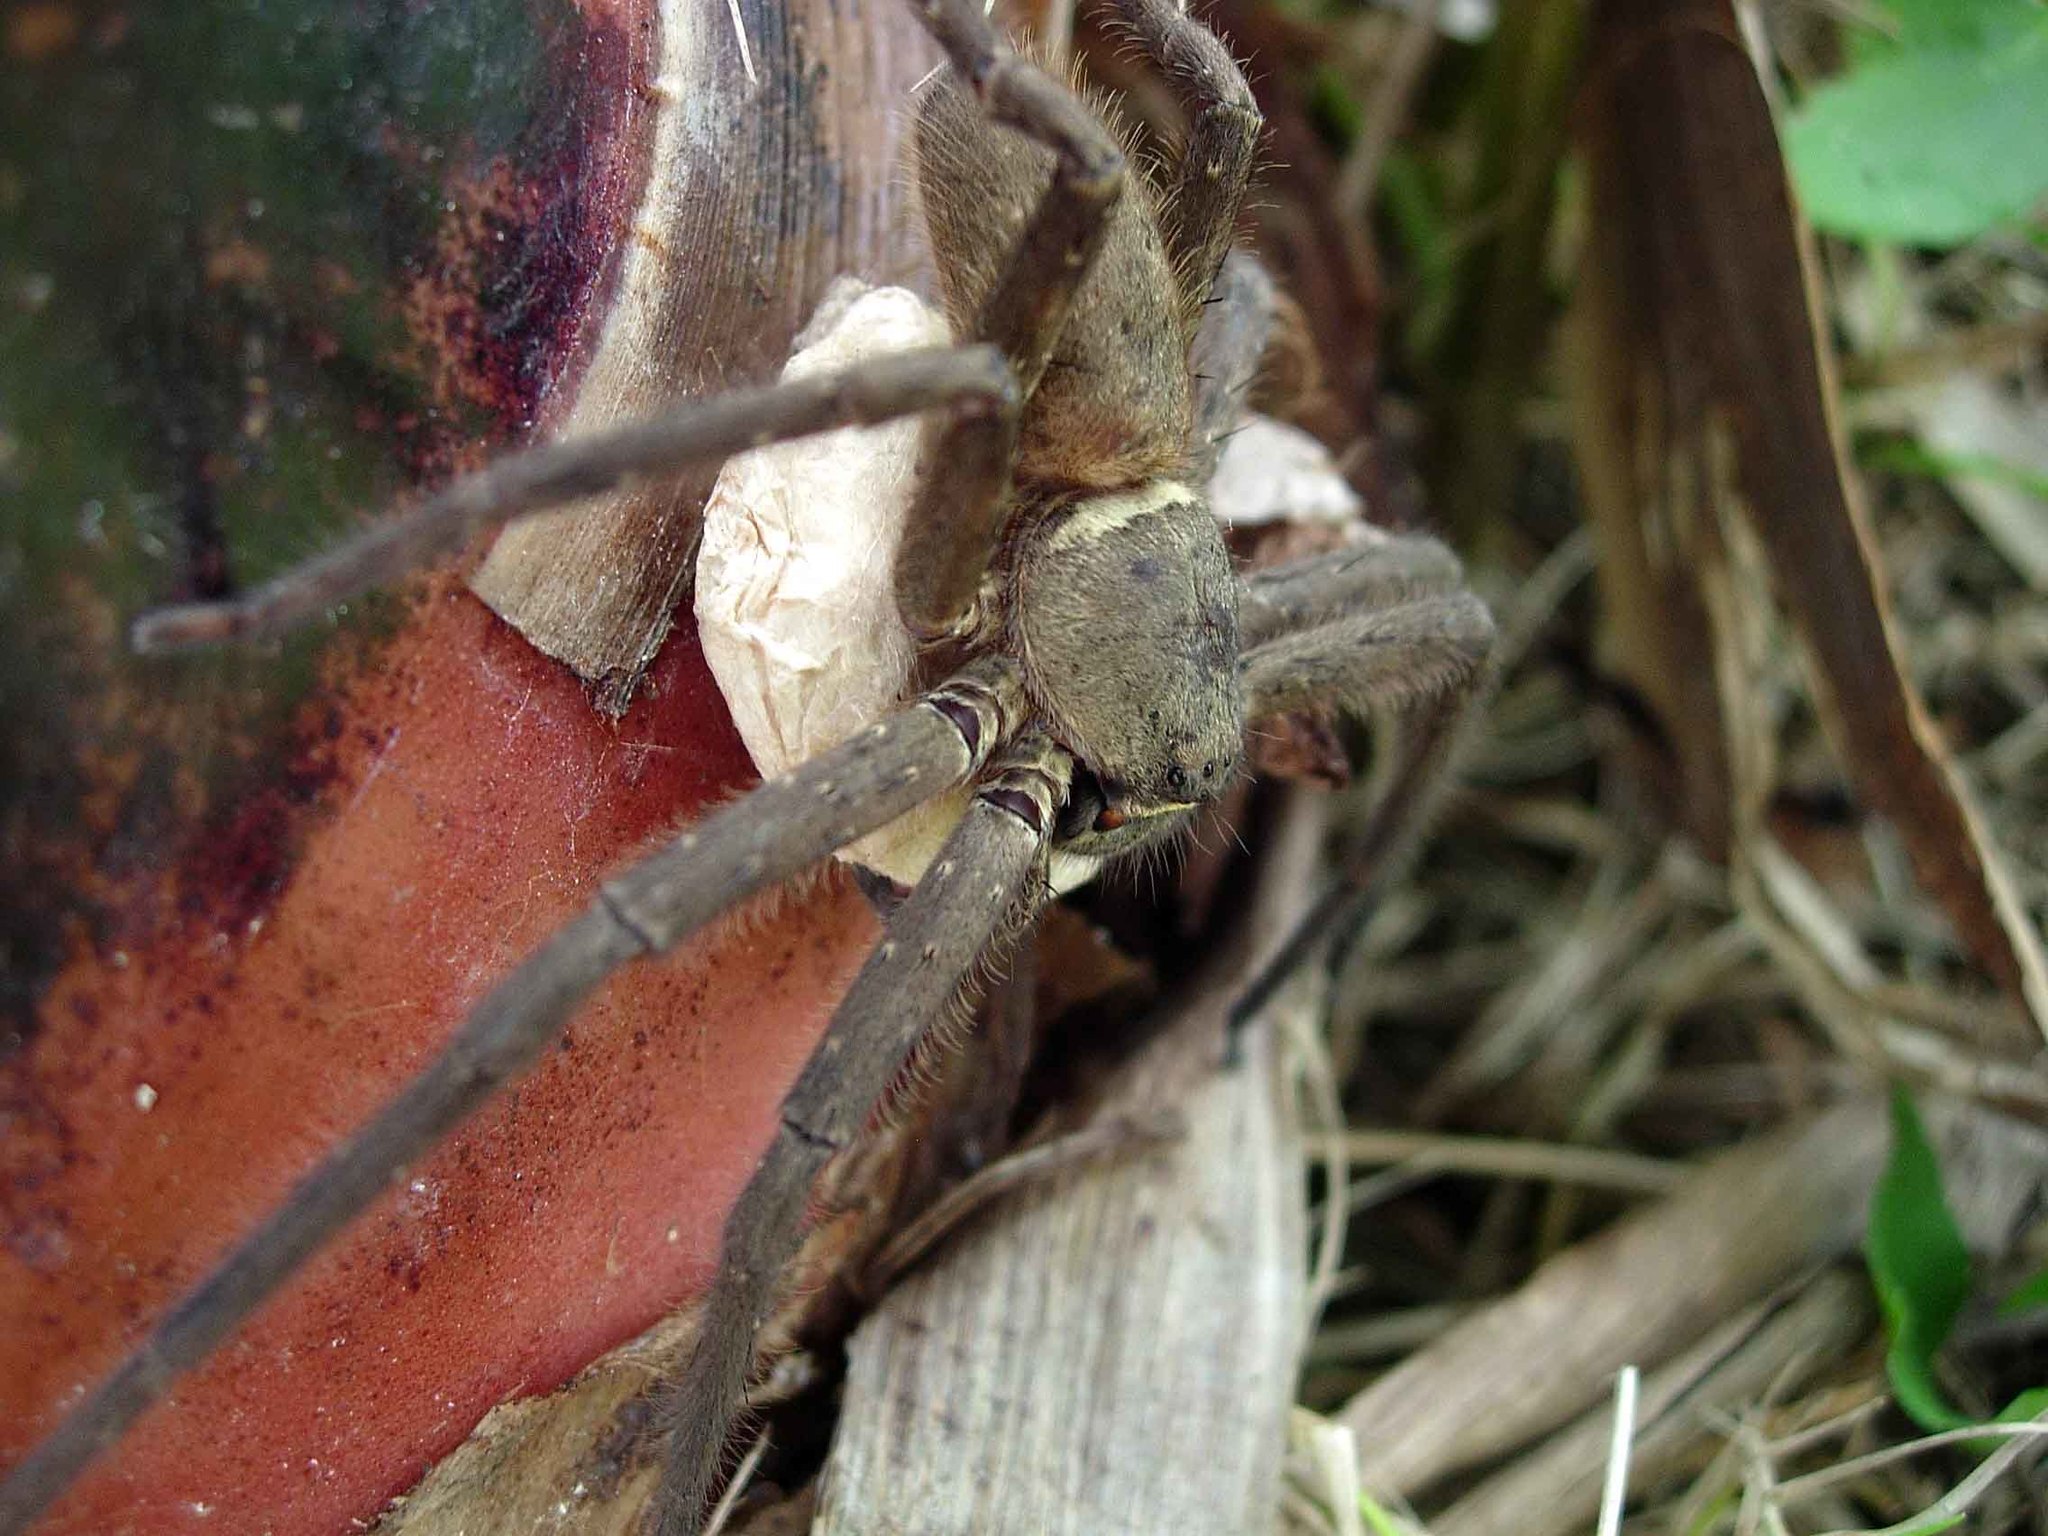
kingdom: Animalia
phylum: Arthropoda
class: Arachnida
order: Araneae
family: Sparassidae
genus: Heteropoda
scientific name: Heteropoda venatoria
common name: Huntsman spider
